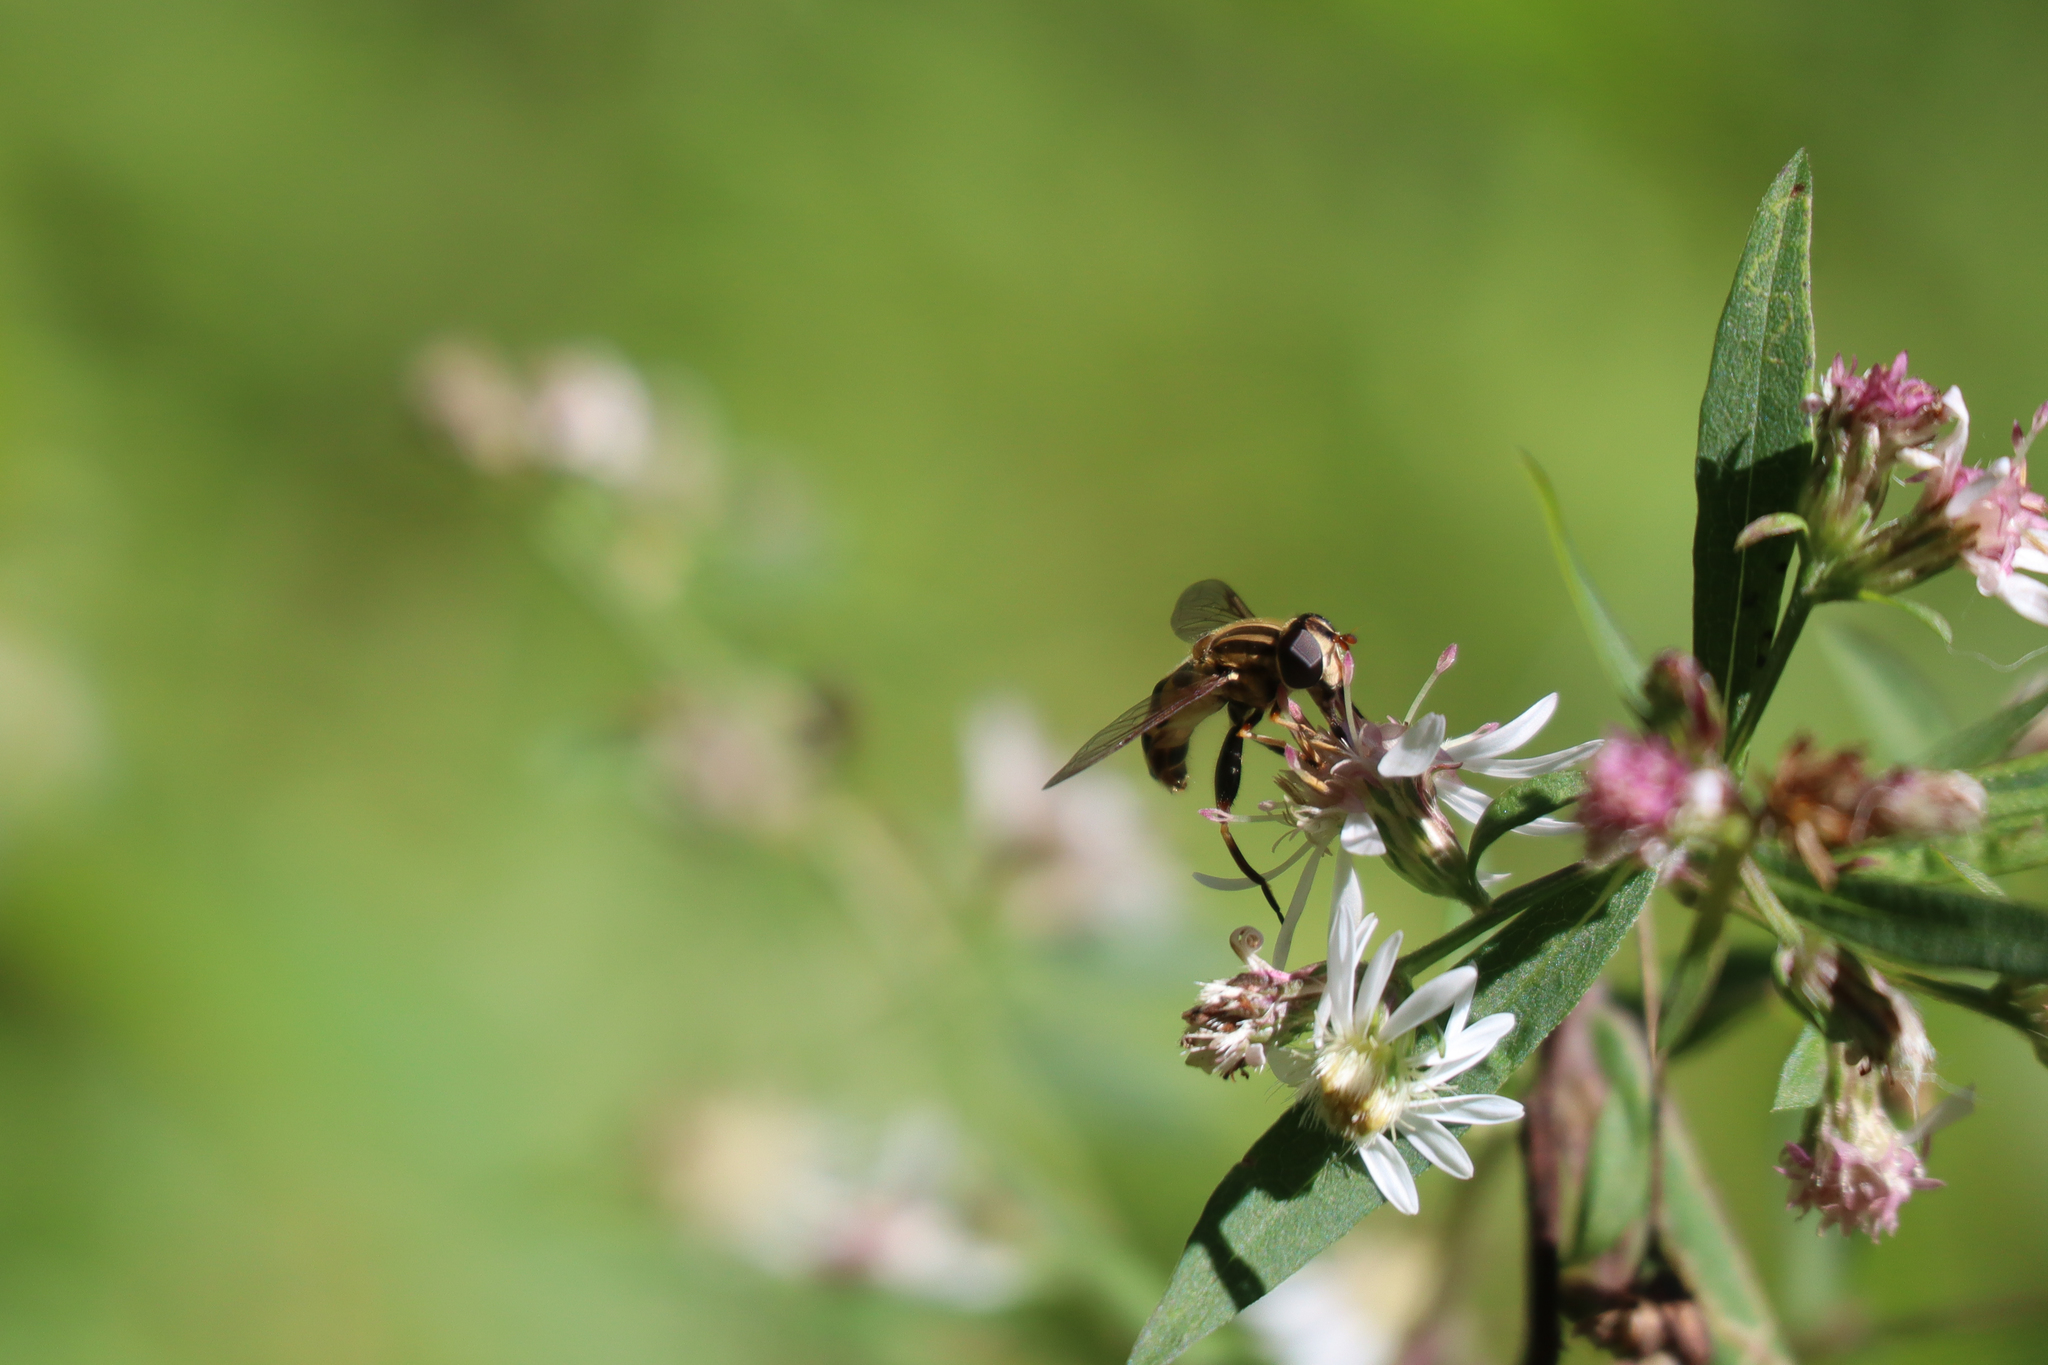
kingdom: Animalia
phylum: Arthropoda
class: Insecta
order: Diptera
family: Syrphidae
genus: Helophilus
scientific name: Helophilus fasciatus
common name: Narrow-headed marsh fly
